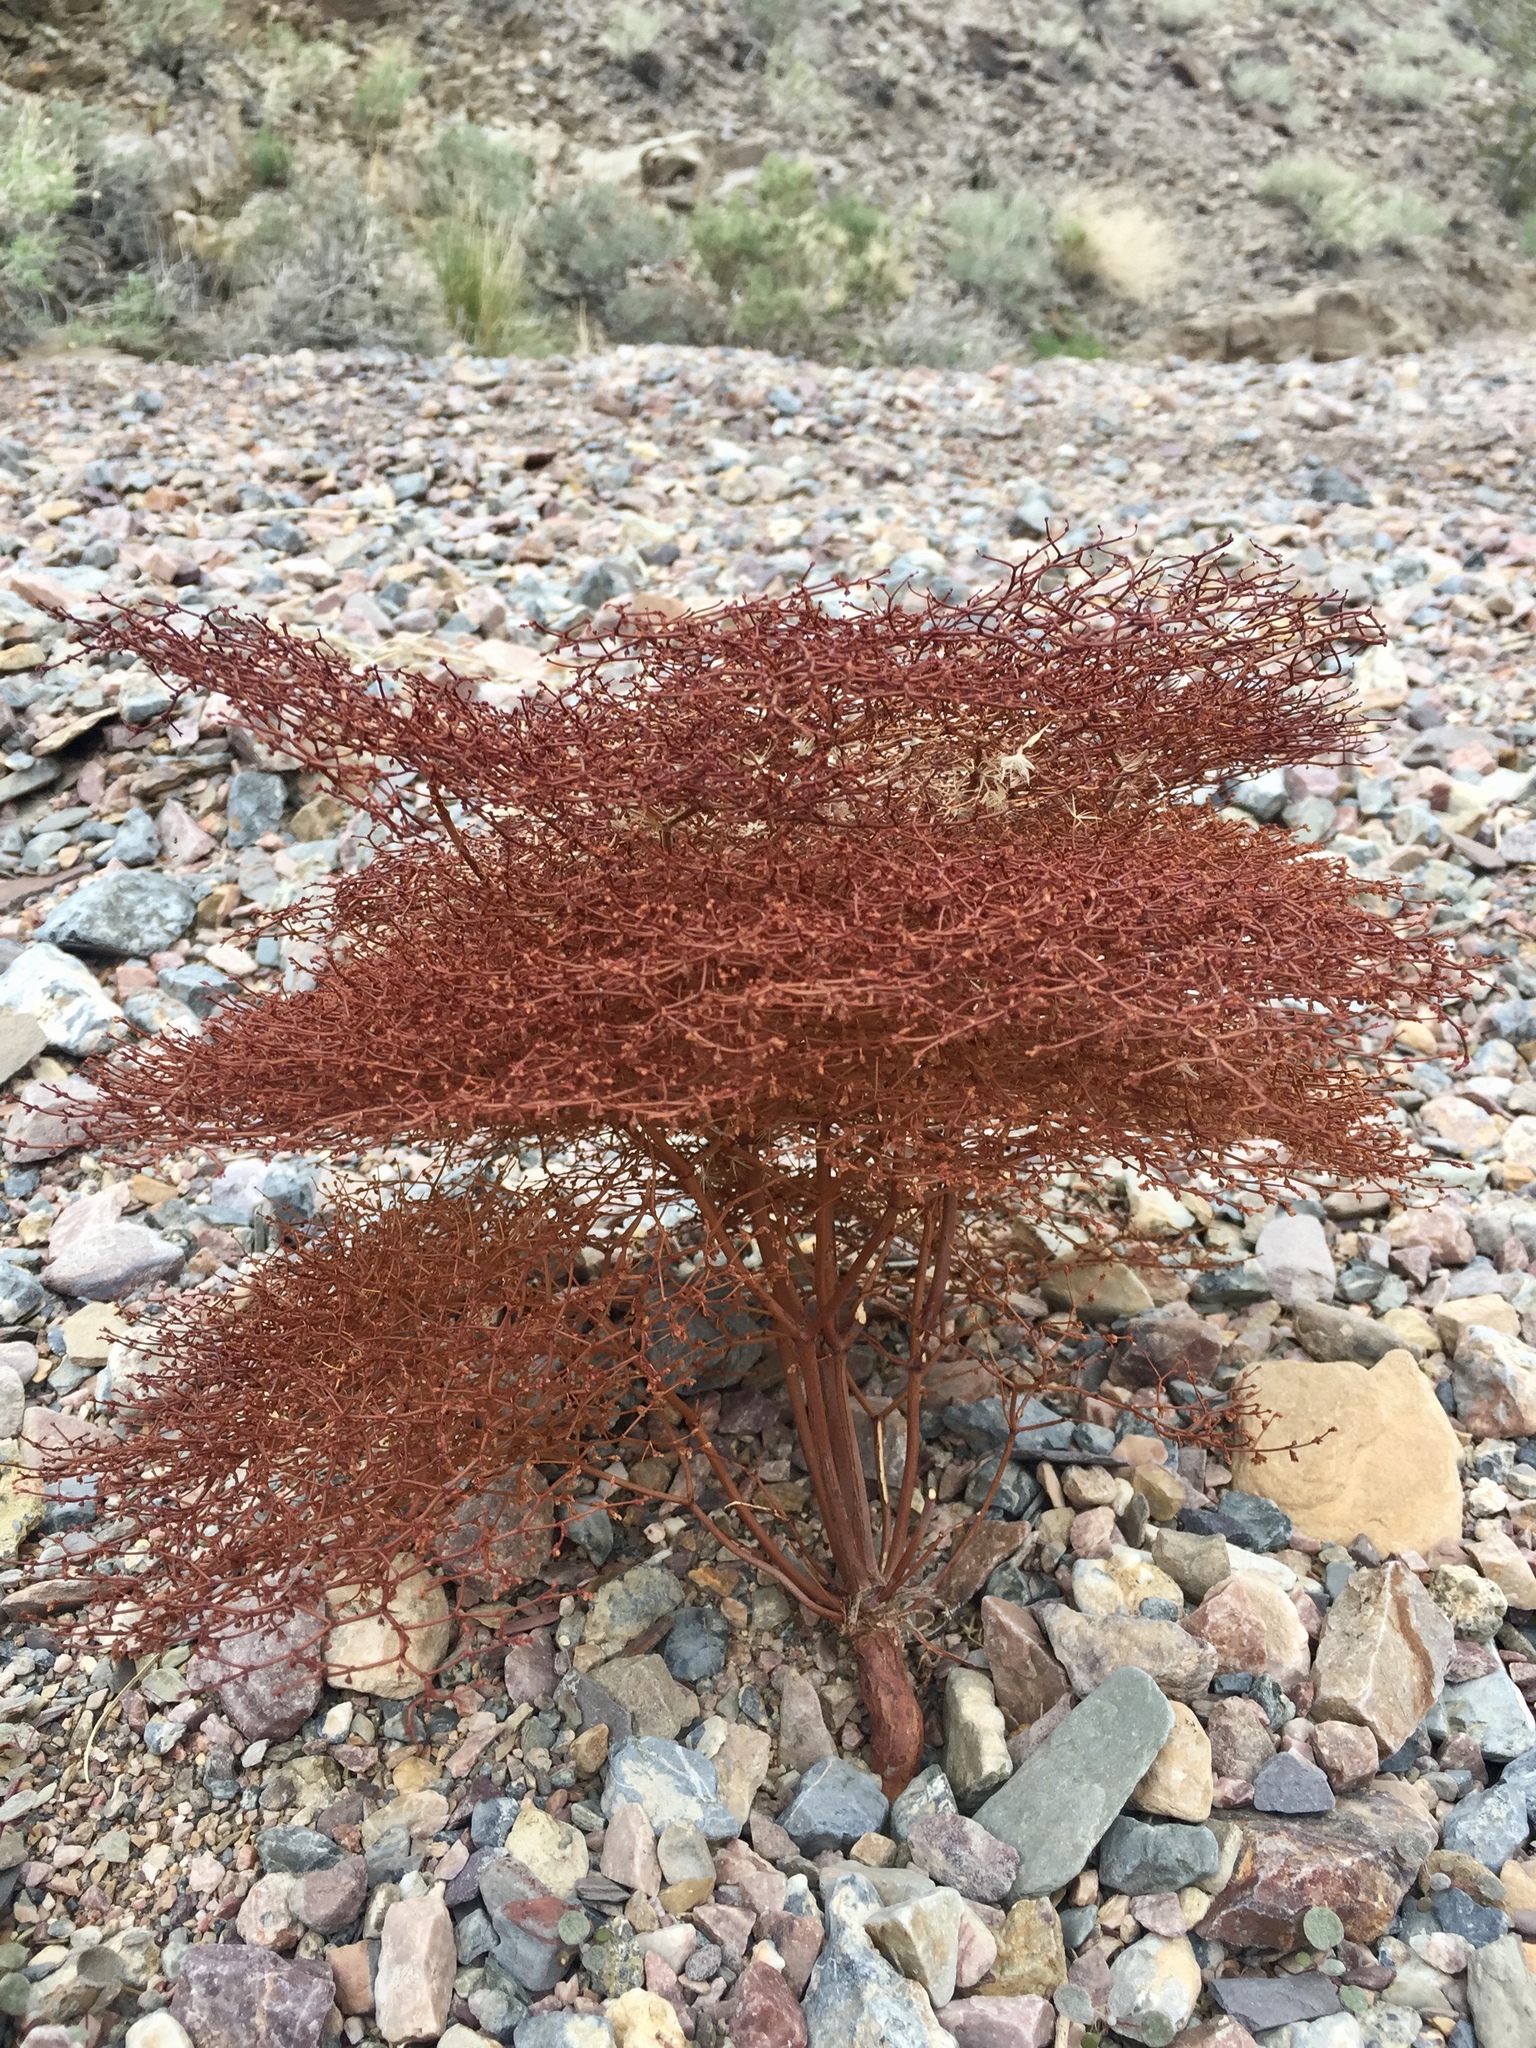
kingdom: Plantae
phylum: Tracheophyta
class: Magnoliopsida
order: Caryophyllales
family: Polygonaceae
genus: Eriogonum
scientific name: Eriogonum rixfordii
